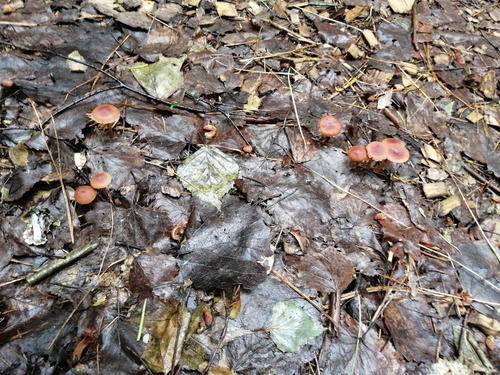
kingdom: Fungi
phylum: Basidiomycota
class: Agaricomycetes
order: Agaricales
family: Tubariaceae
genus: Tubaria
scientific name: Tubaria furfuracea
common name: Scurfy twiglet
